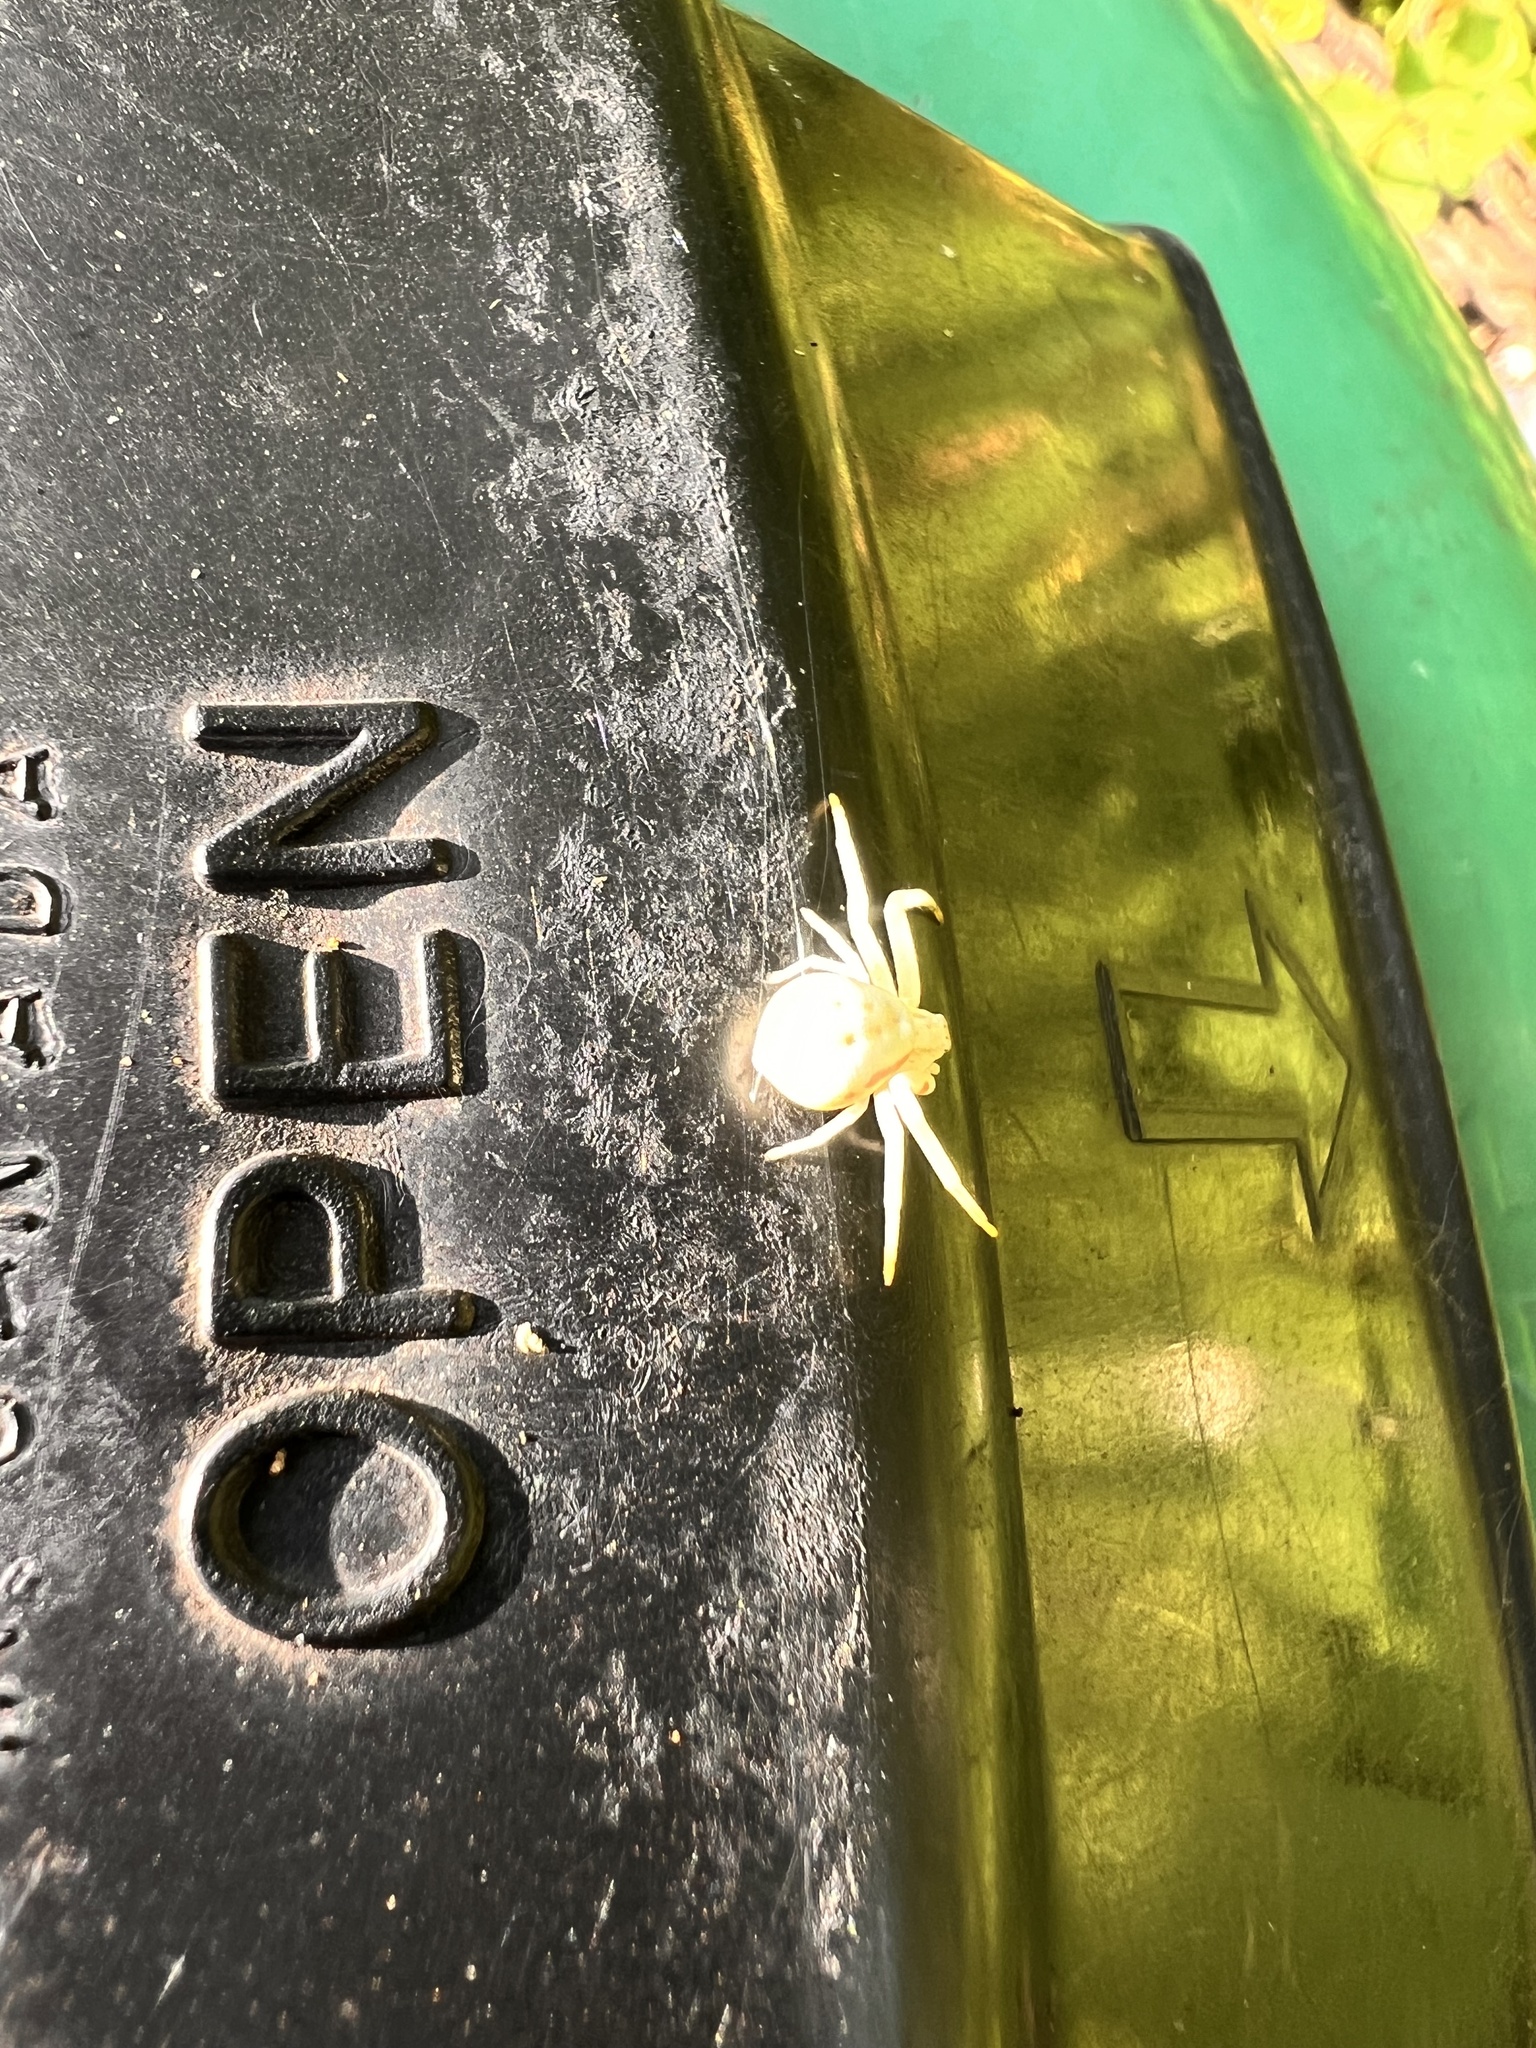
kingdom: Animalia
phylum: Arthropoda
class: Arachnida
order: Araneae
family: Thomisidae
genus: Misumena
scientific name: Misumena vatia
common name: Goldenrod crab spider
